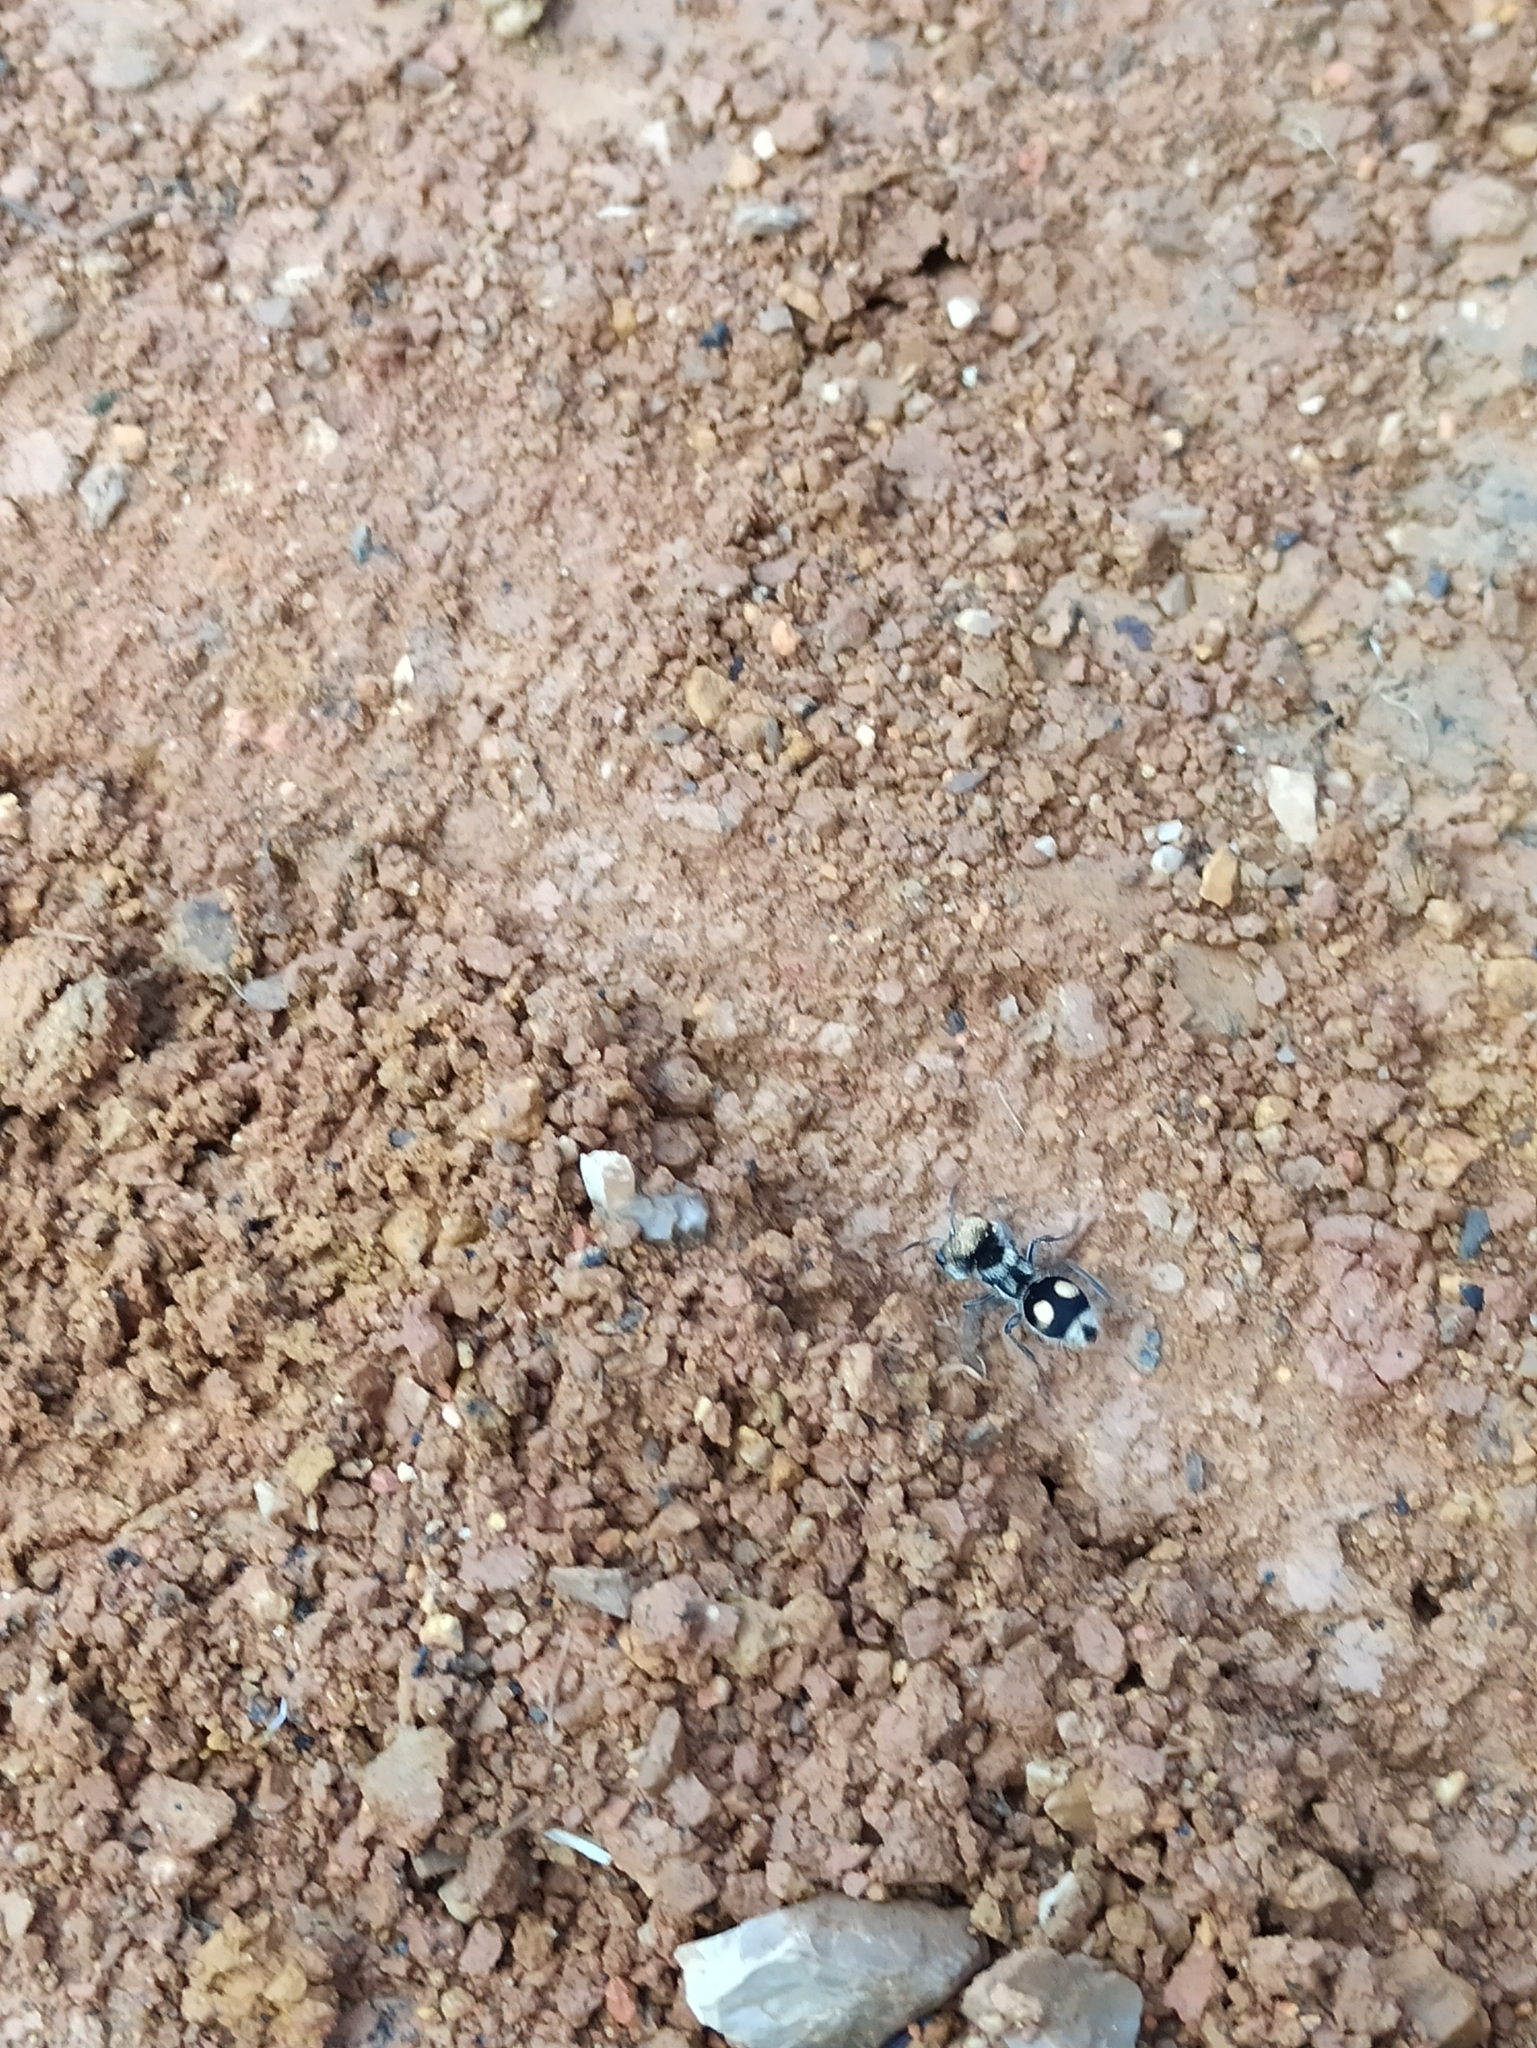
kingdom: Animalia
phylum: Arthropoda
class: Insecta
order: Hymenoptera
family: Mutillidae
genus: Hoplognathoca
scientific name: Hoplognathoca
